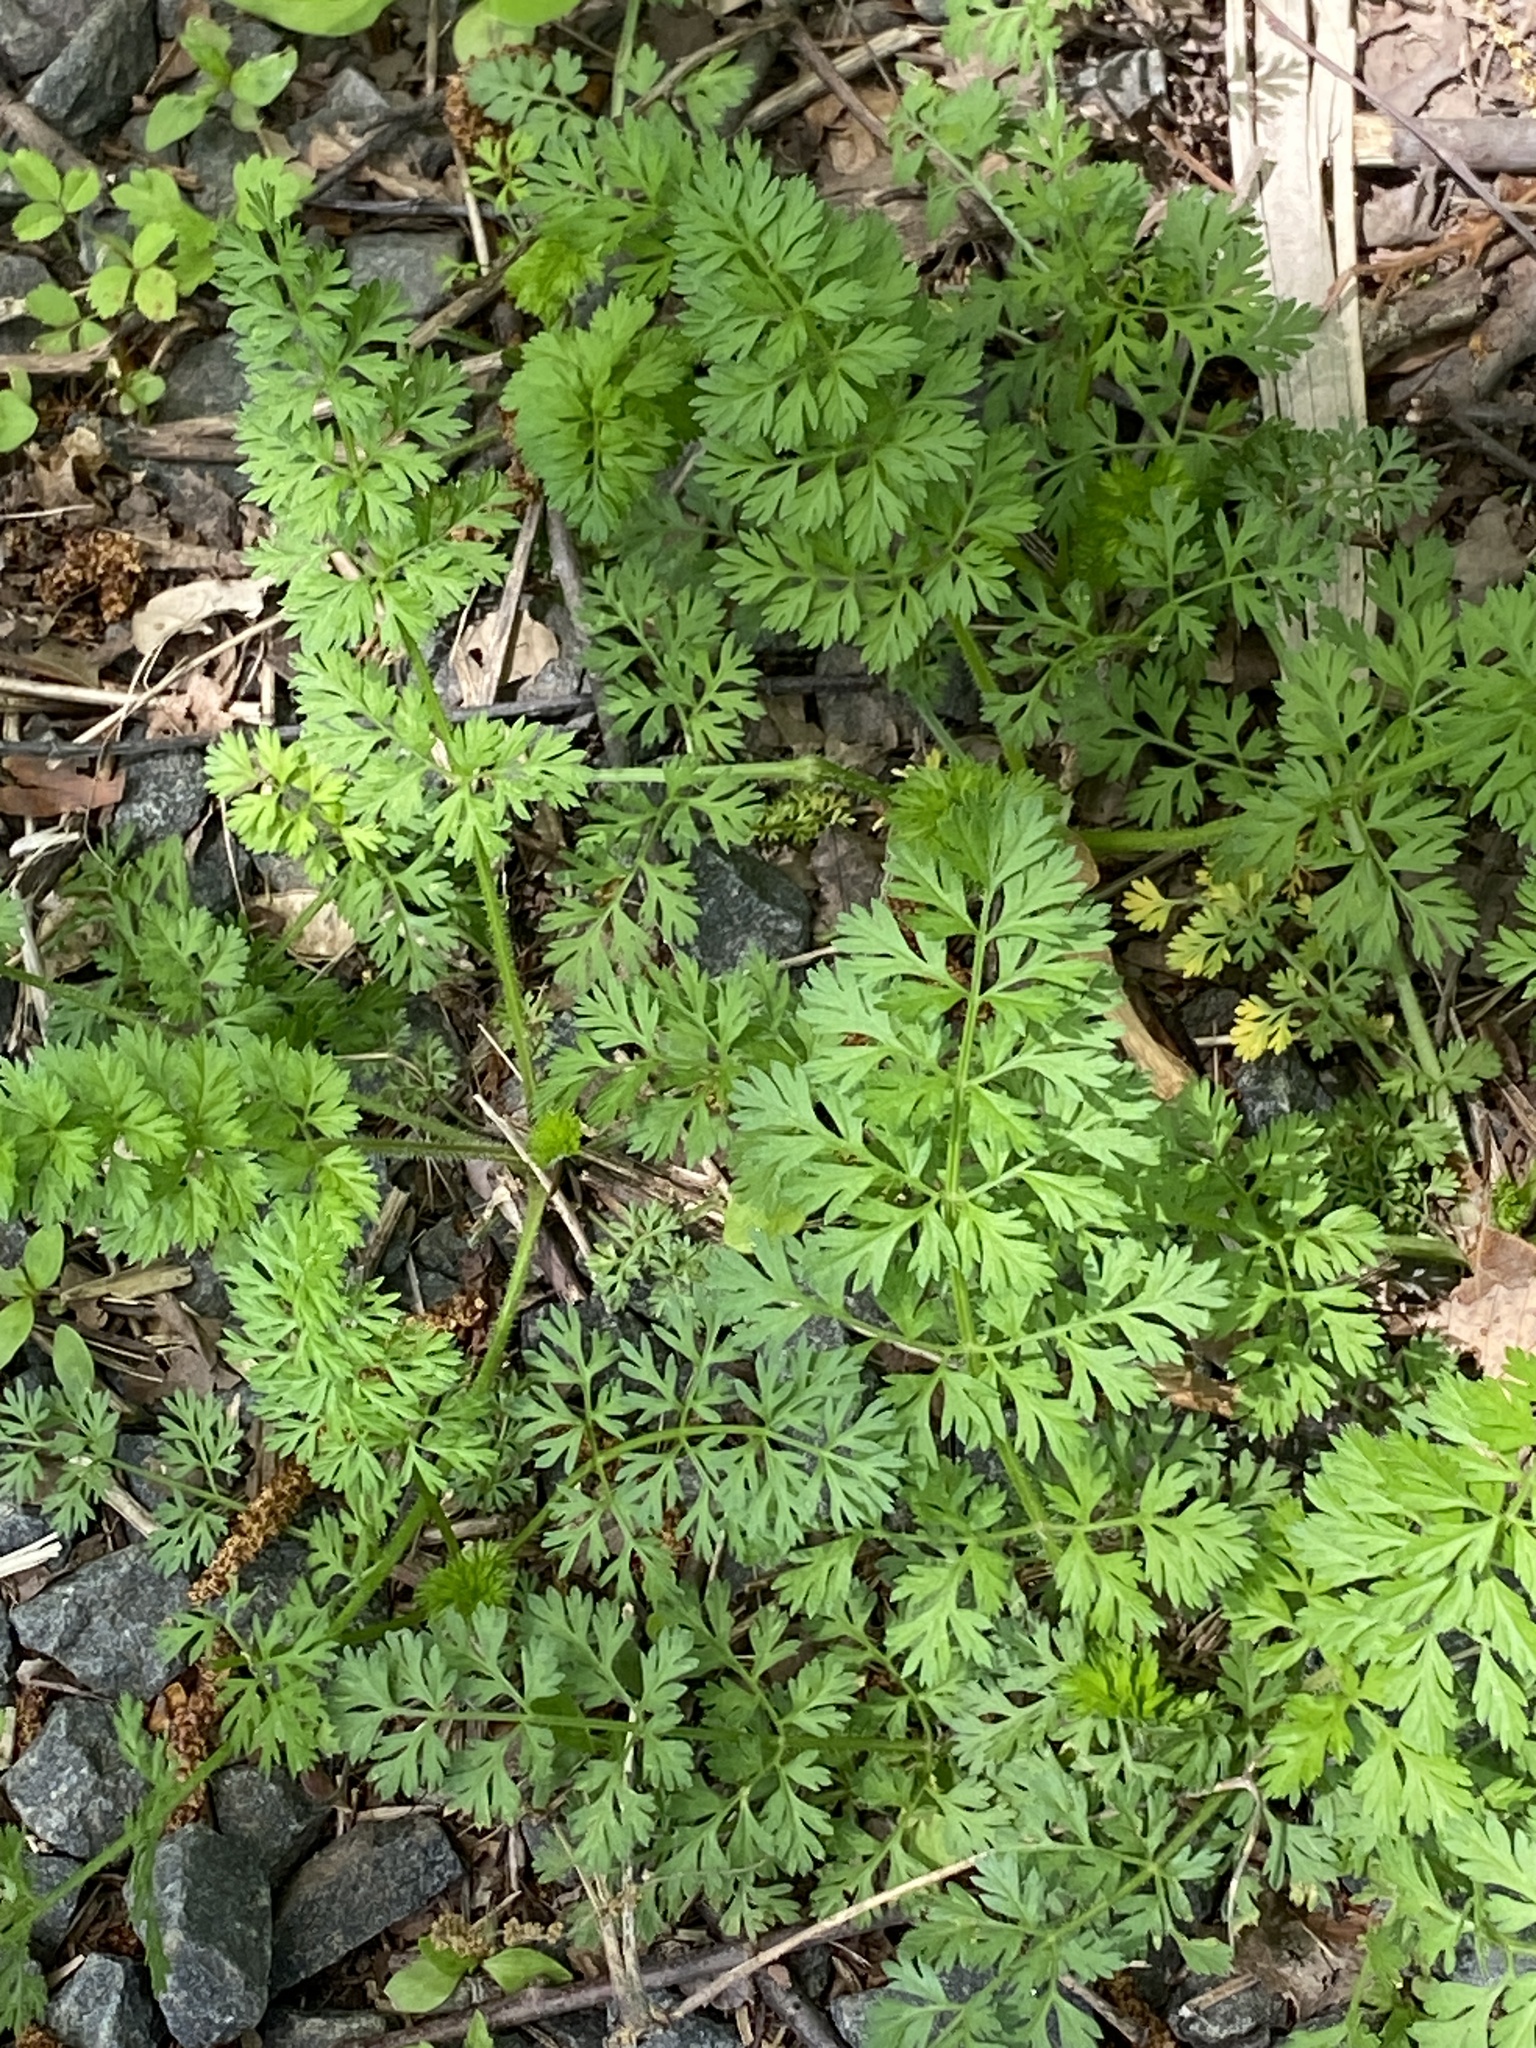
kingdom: Plantae
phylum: Tracheophyta
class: Magnoliopsida
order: Apiales
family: Apiaceae
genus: Daucus
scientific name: Daucus carota
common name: Wild carrot
